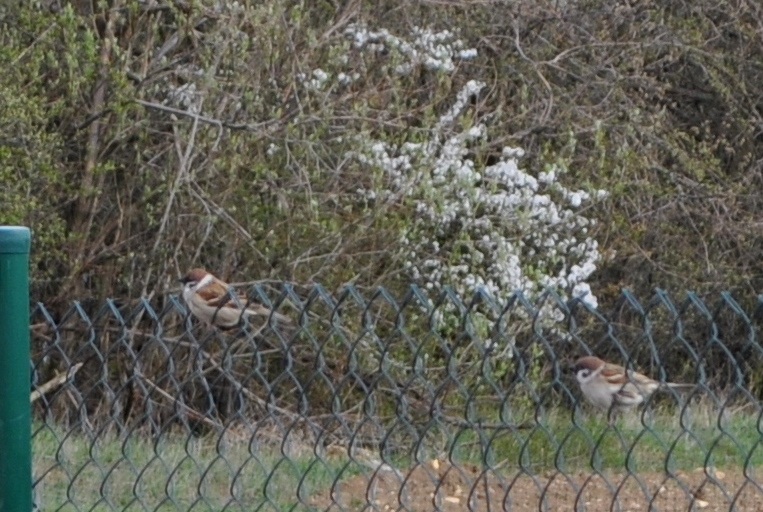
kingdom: Animalia
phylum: Chordata
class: Aves
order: Passeriformes
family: Passeridae
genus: Passer
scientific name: Passer montanus
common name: Eurasian tree sparrow
